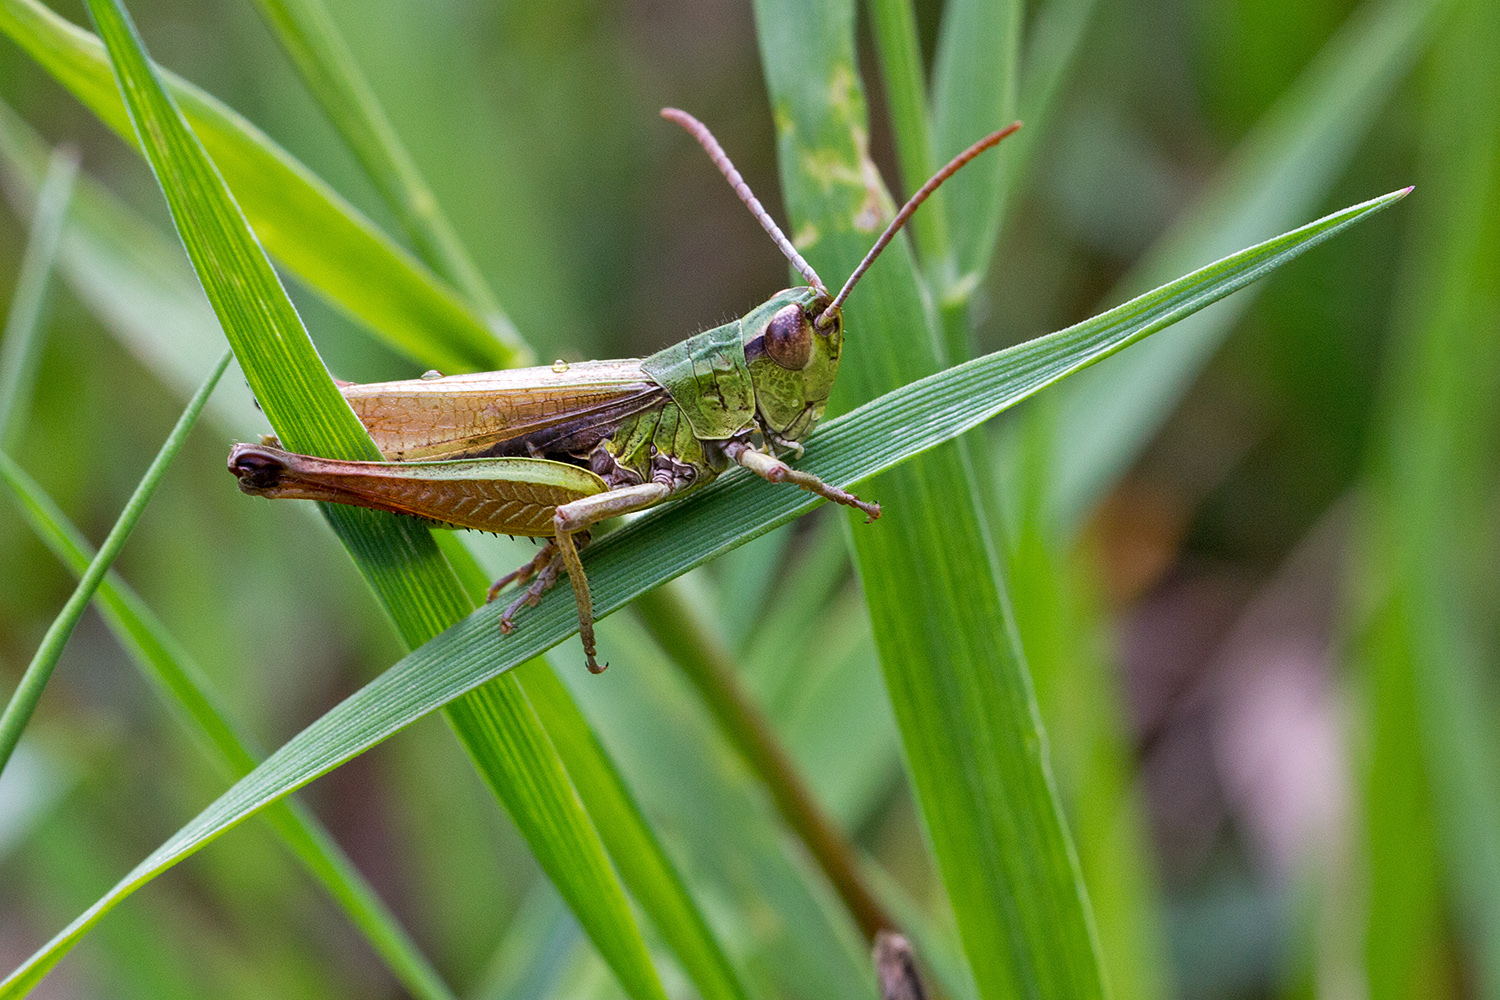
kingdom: Animalia
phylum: Arthropoda
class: Insecta
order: Orthoptera
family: Acrididae
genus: Pseudochorthippus
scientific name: Pseudochorthippus parallelus
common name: Meadow grasshopper
